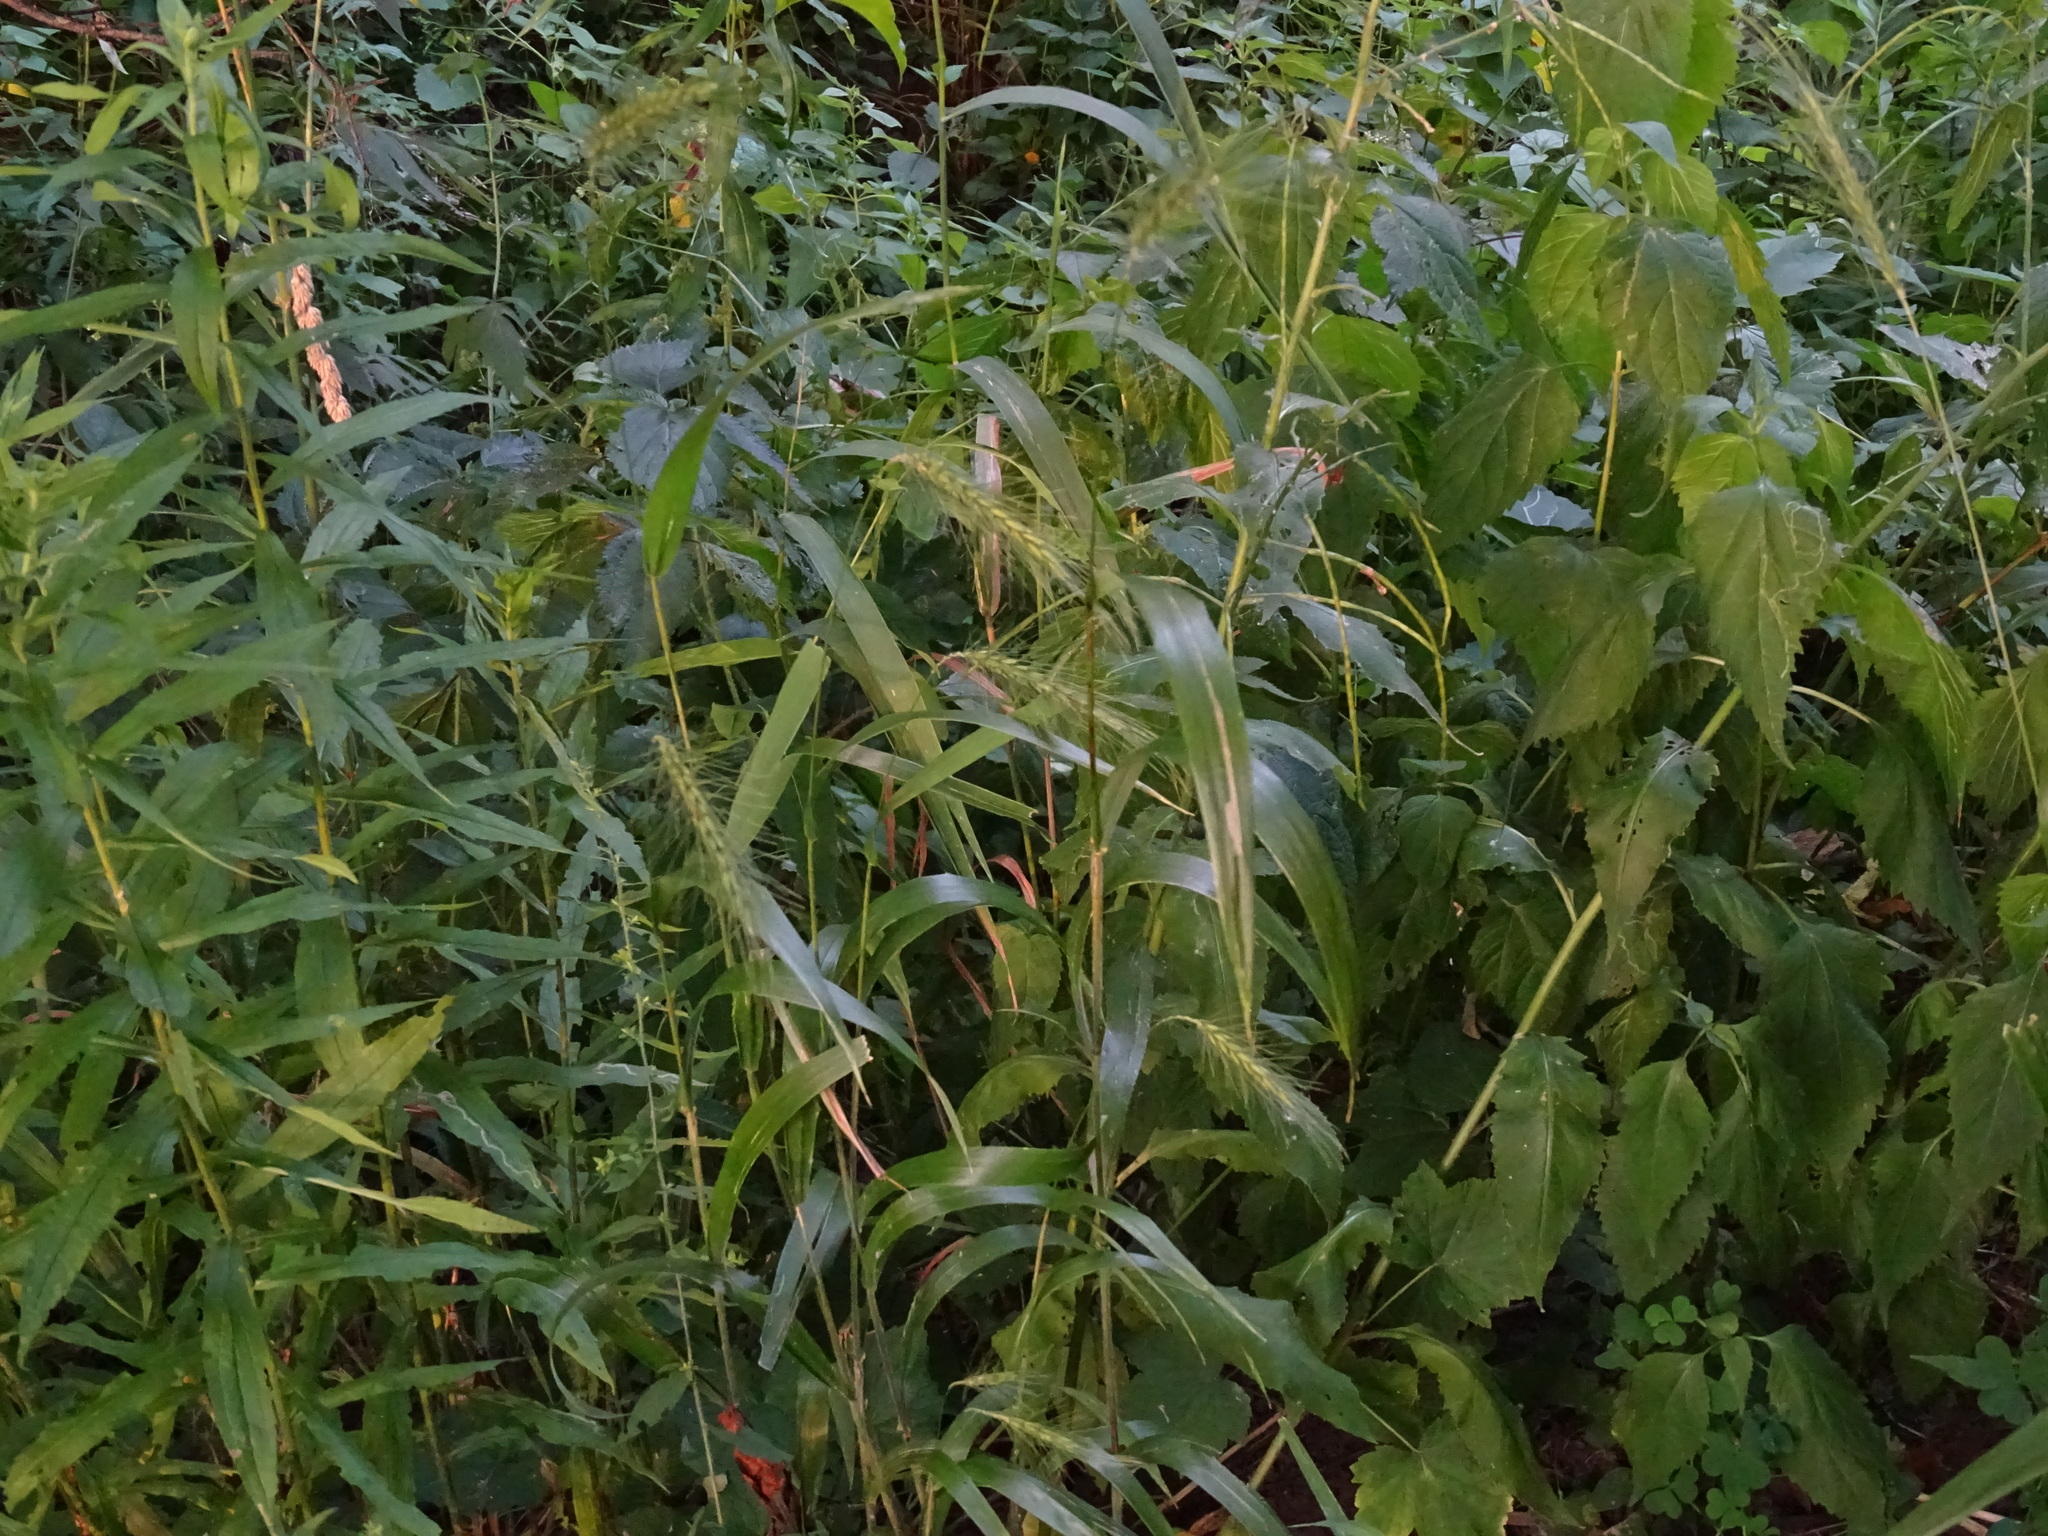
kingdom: Plantae
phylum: Tracheophyta
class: Liliopsida
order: Poales
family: Poaceae
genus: Elymus
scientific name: Elymus villosus
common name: Downy wild rye
